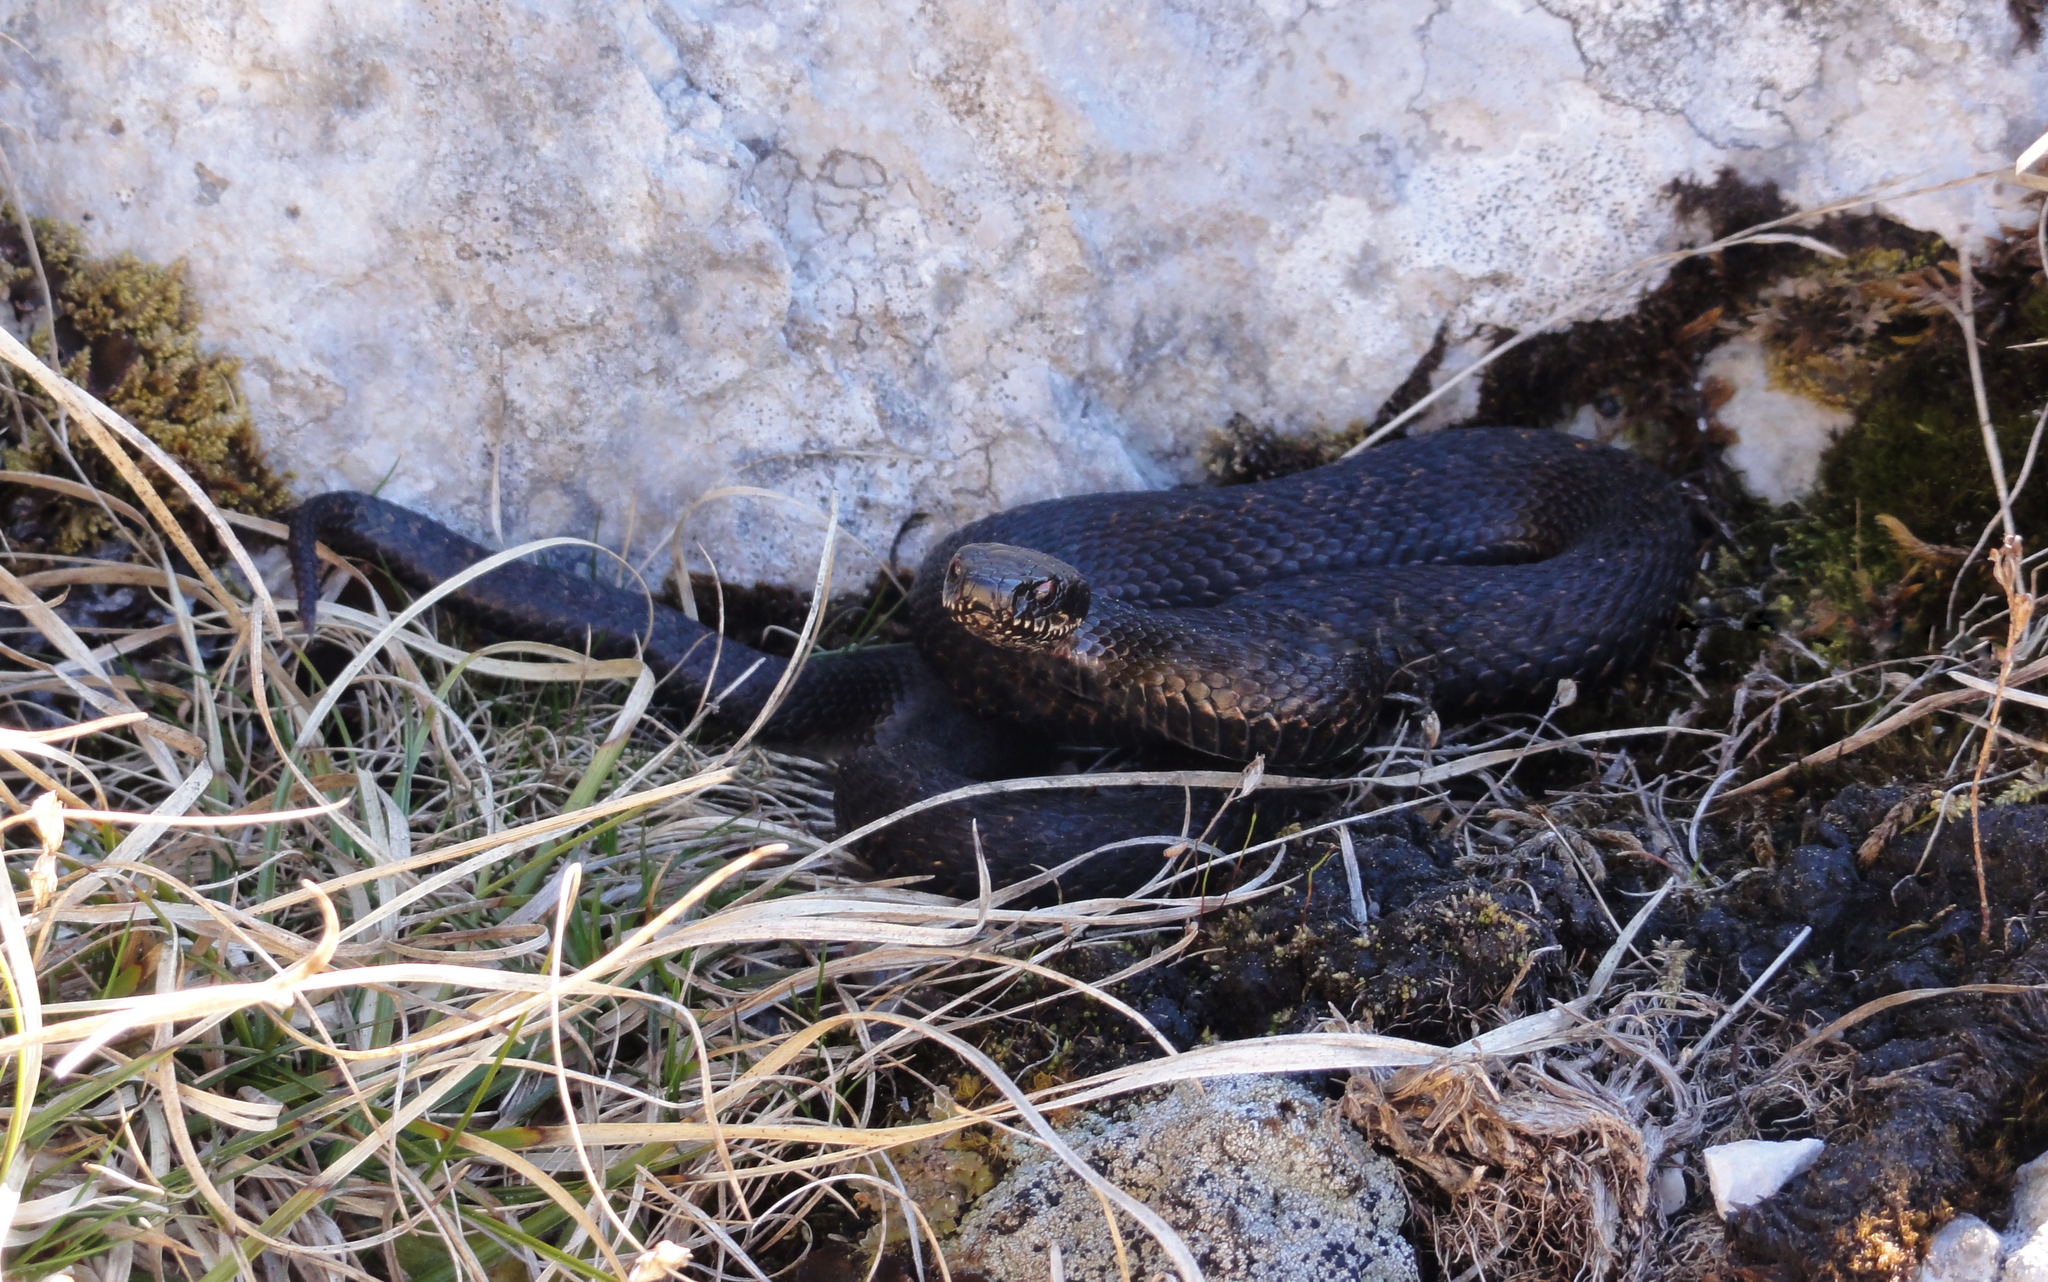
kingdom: Animalia
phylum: Chordata
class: Squamata
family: Viperidae
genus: Vipera
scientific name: Vipera berus
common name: Adder
